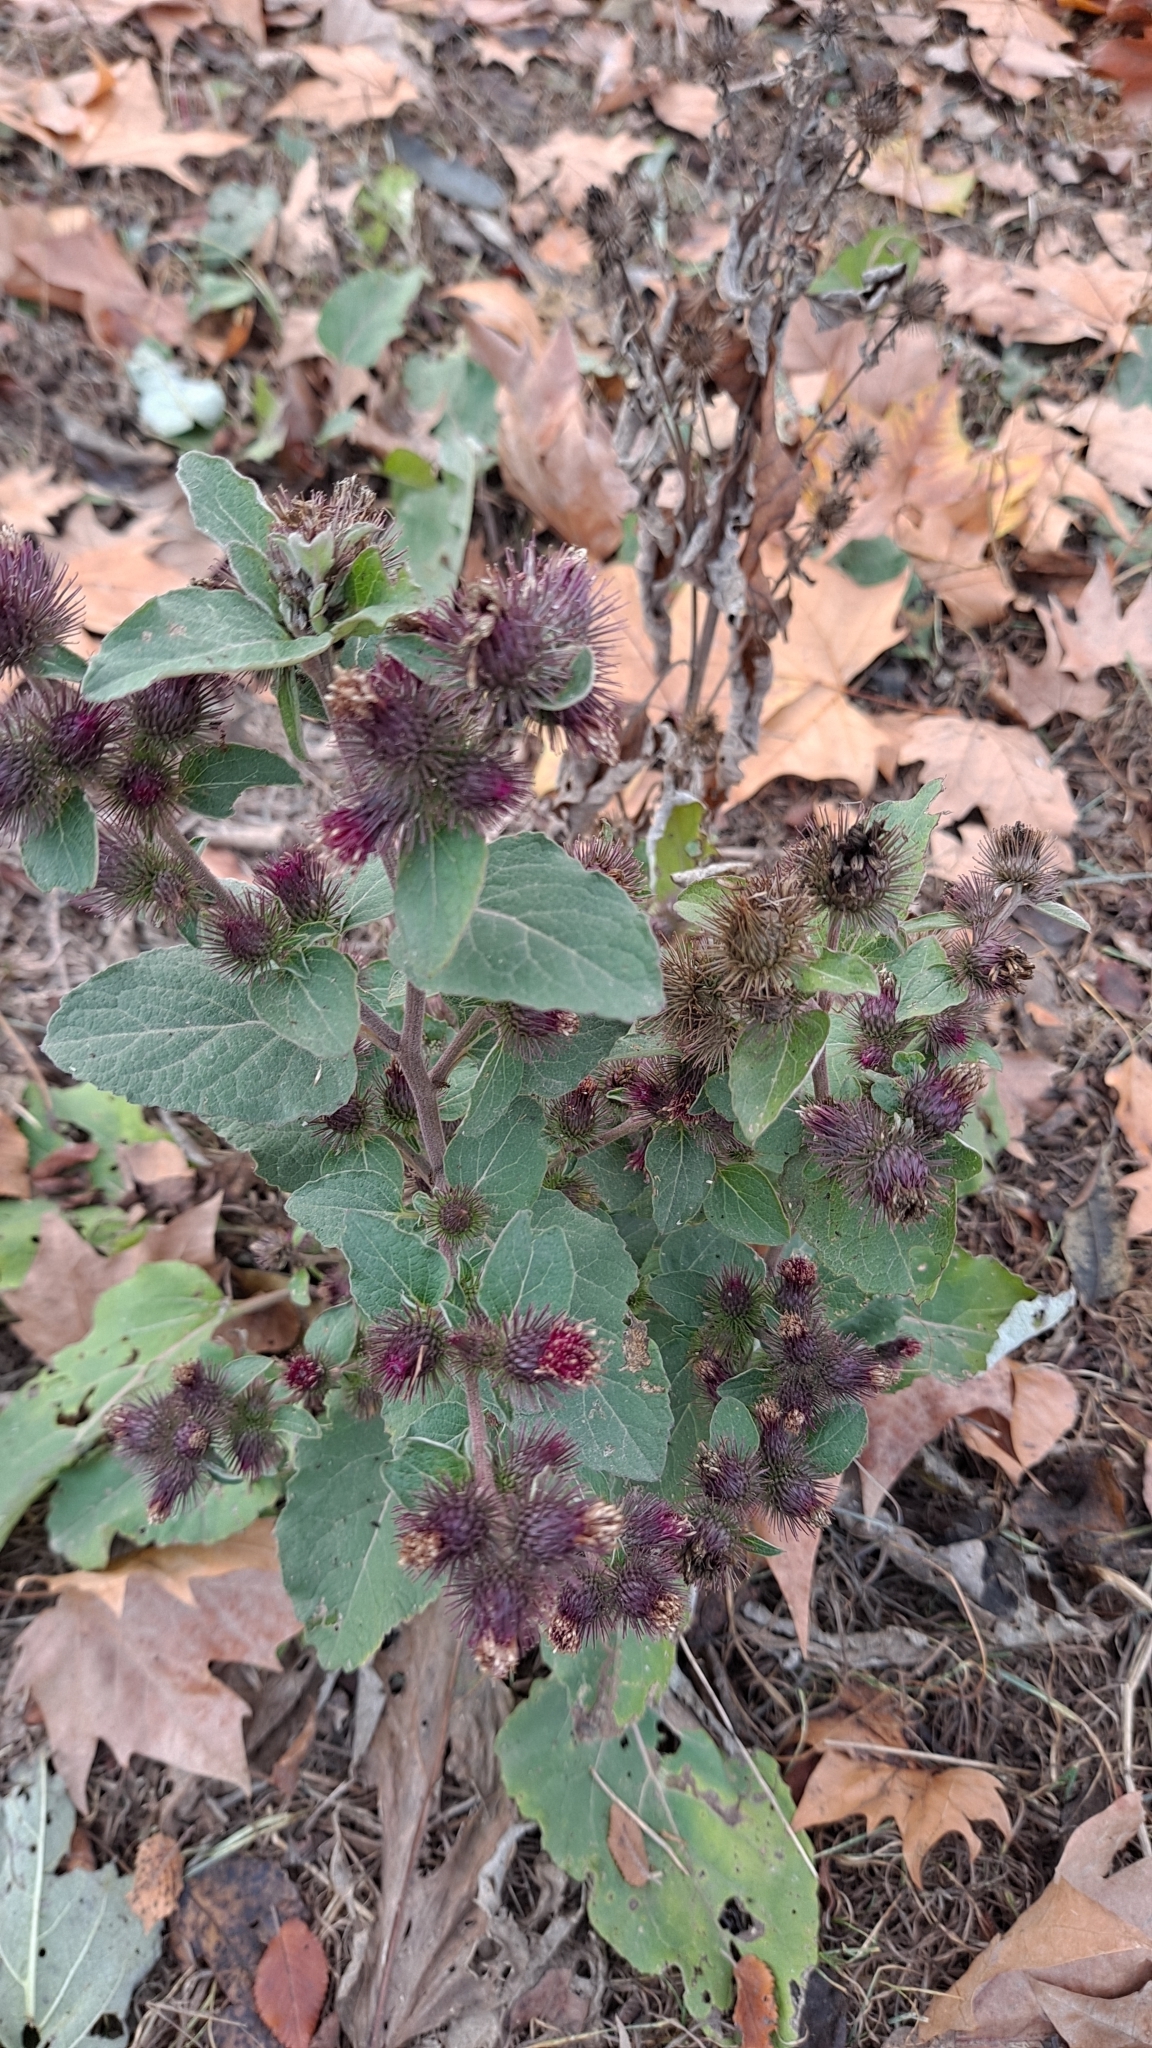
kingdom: Plantae
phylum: Tracheophyta
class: Magnoliopsida
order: Asterales
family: Asteraceae
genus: Arctium
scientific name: Arctium minus
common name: Lesser burdock
